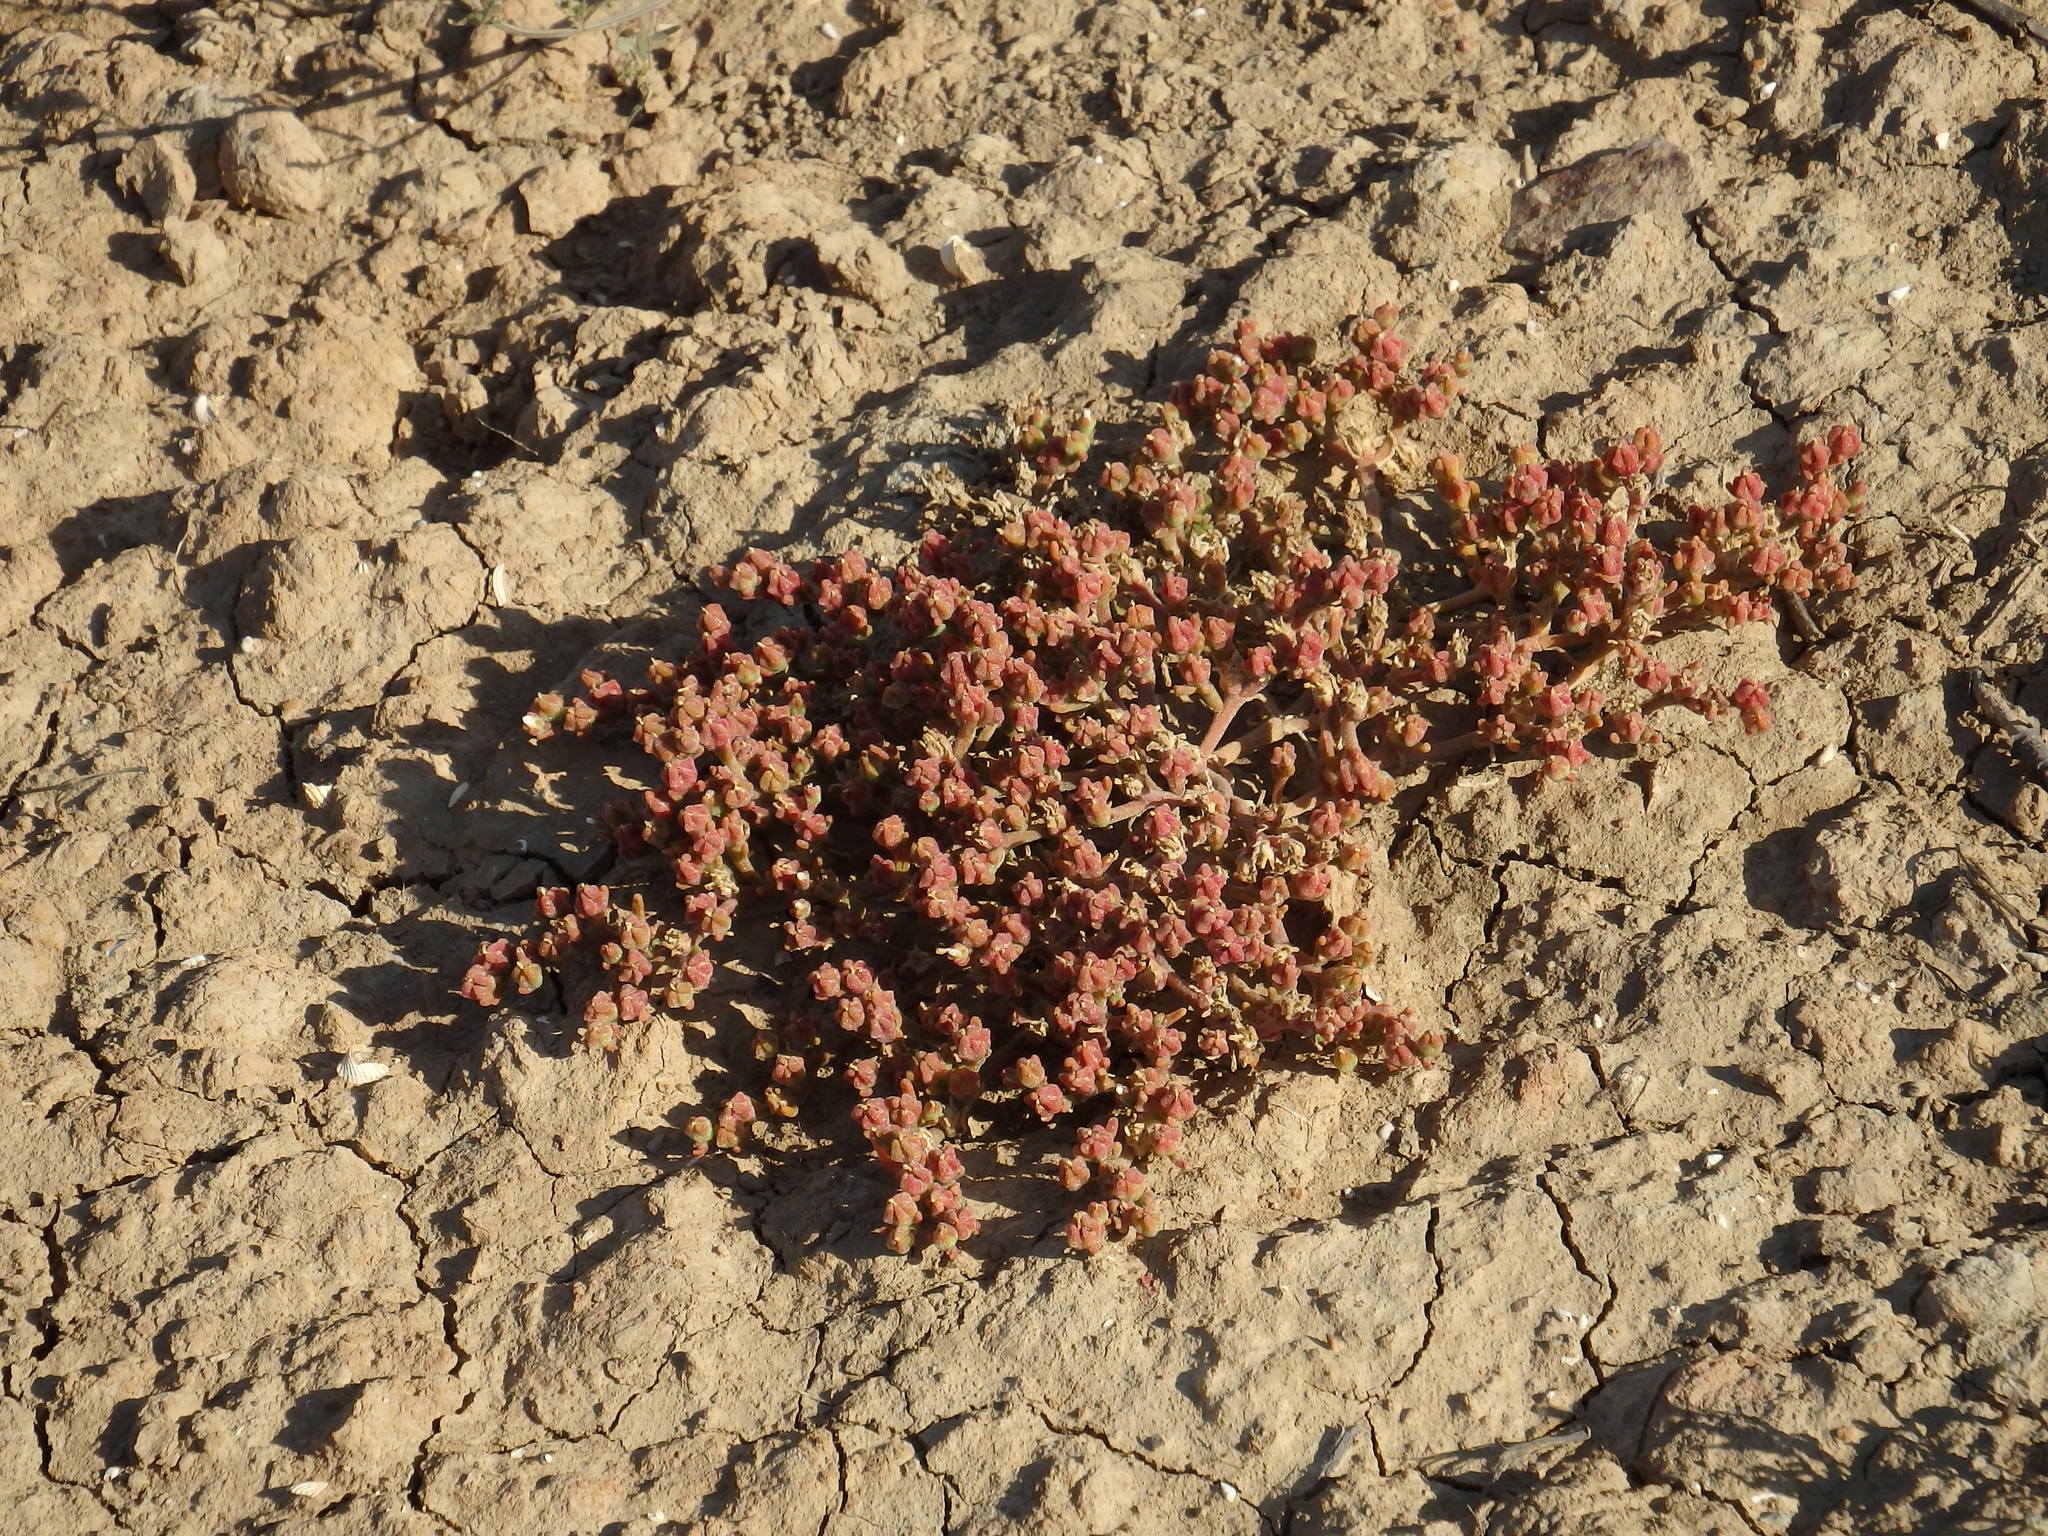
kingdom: Plantae
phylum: Tracheophyta
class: Magnoliopsida
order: Caryophyllales
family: Aizoaceae
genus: Mesembryanthemum
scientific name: Mesembryanthemum nodiflorum
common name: Slenderleaf iceplant
